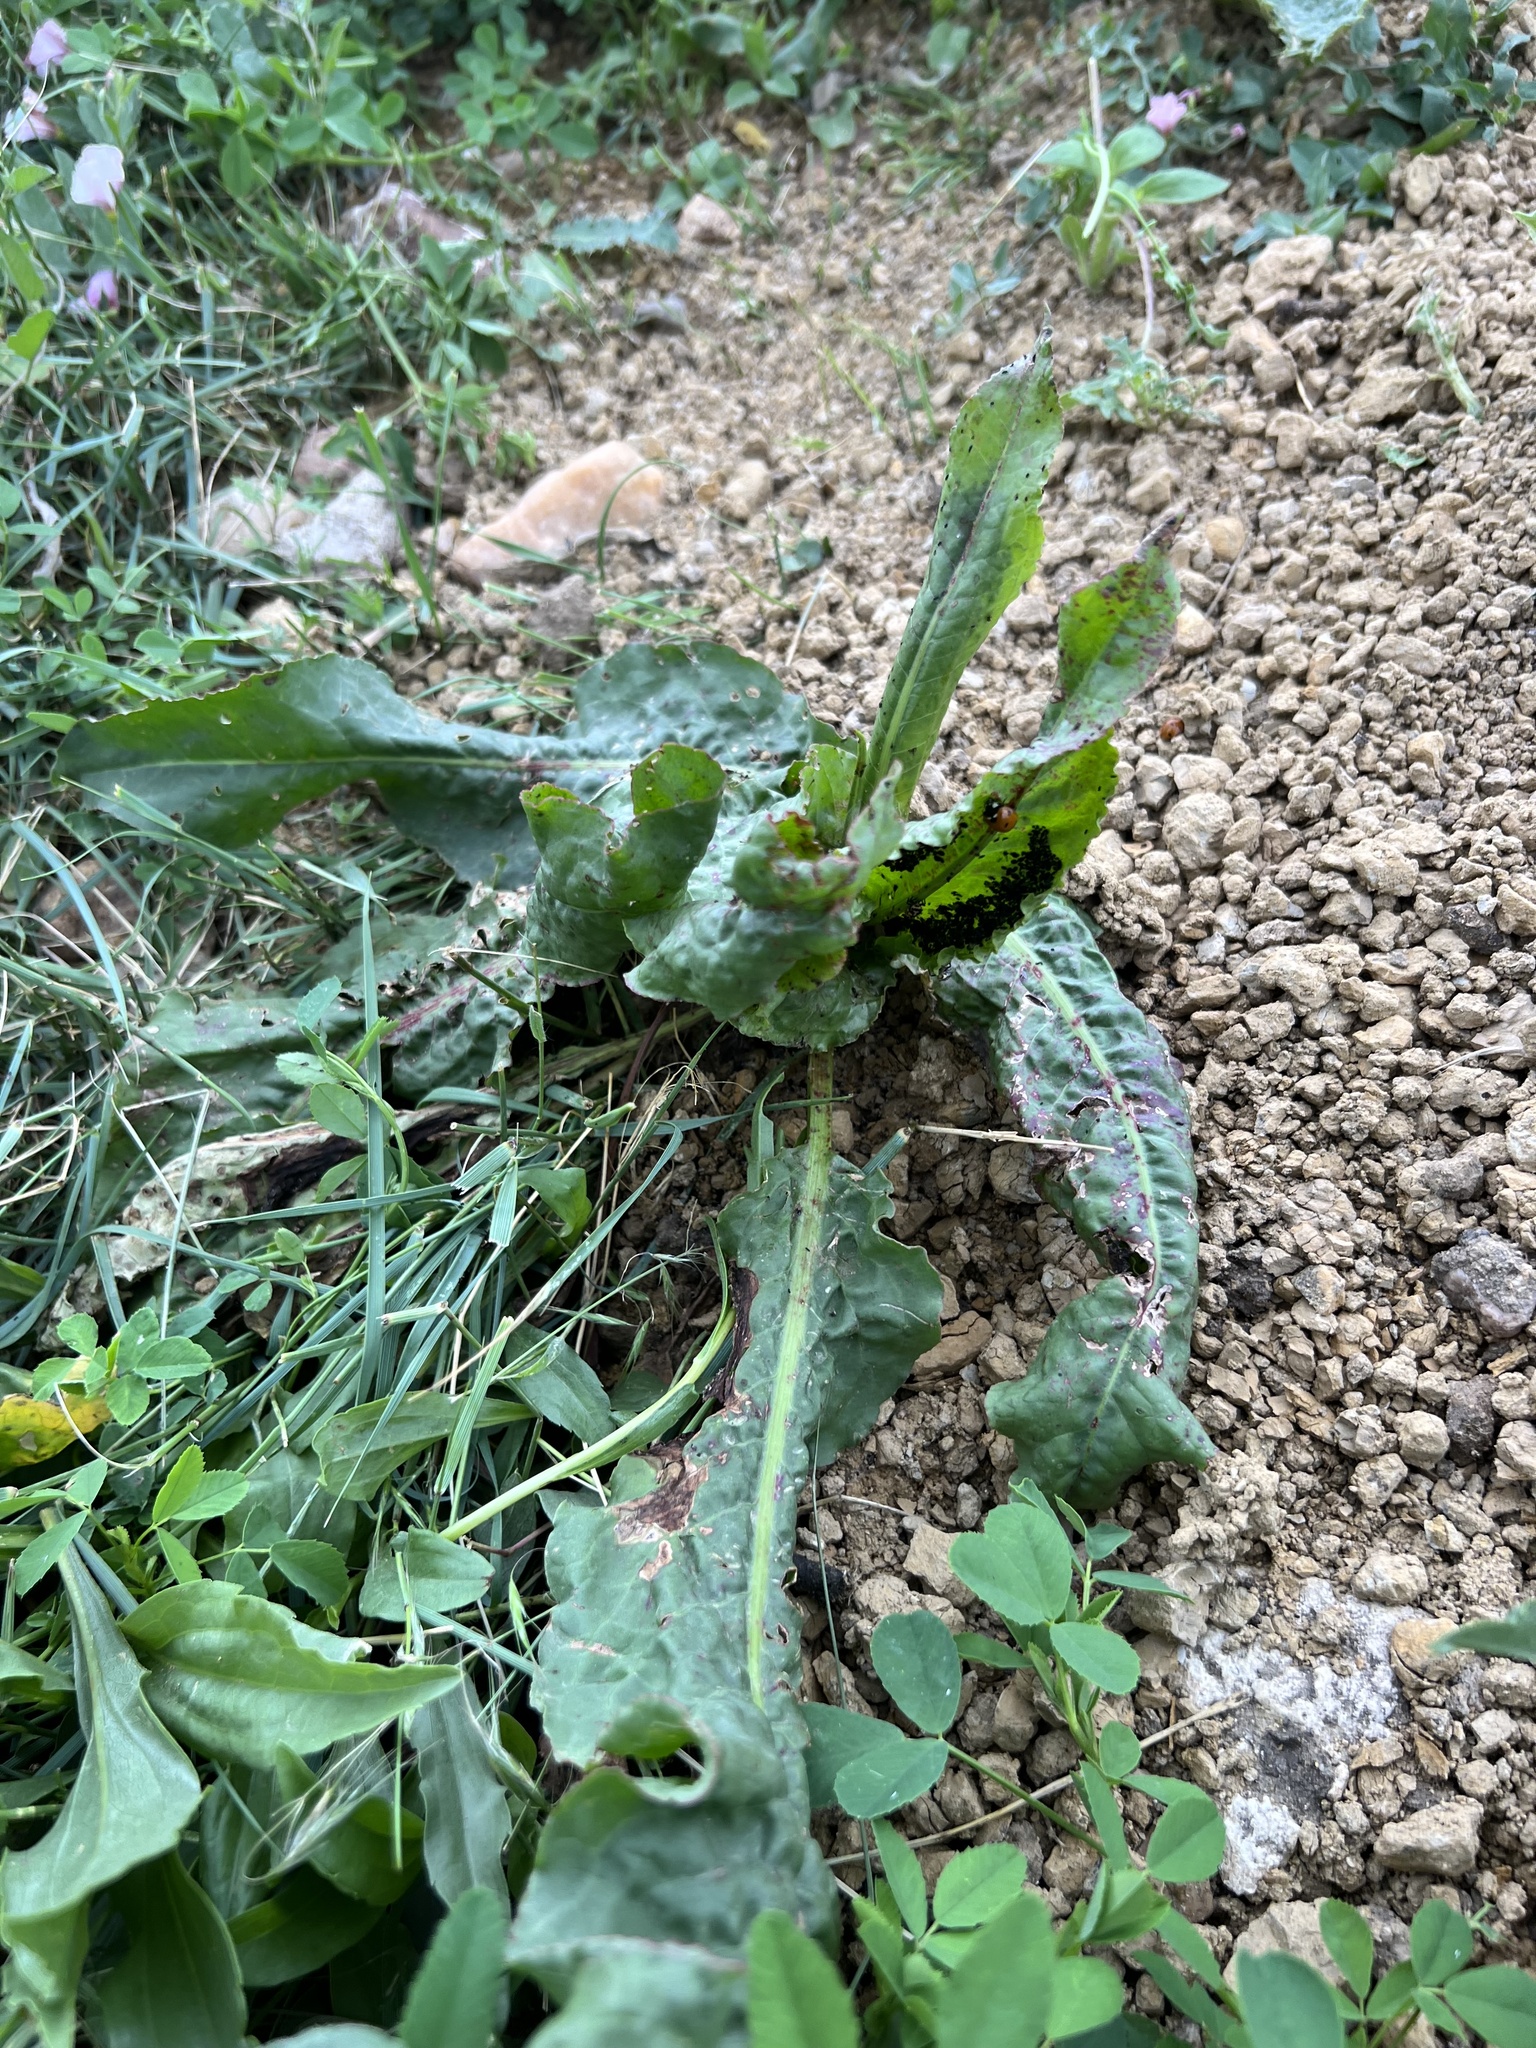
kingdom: Plantae
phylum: Tracheophyta
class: Magnoliopsida
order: Caryophyllales
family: Polygonaceae
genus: Rumex
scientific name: Rumex crispus
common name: Curled dock
